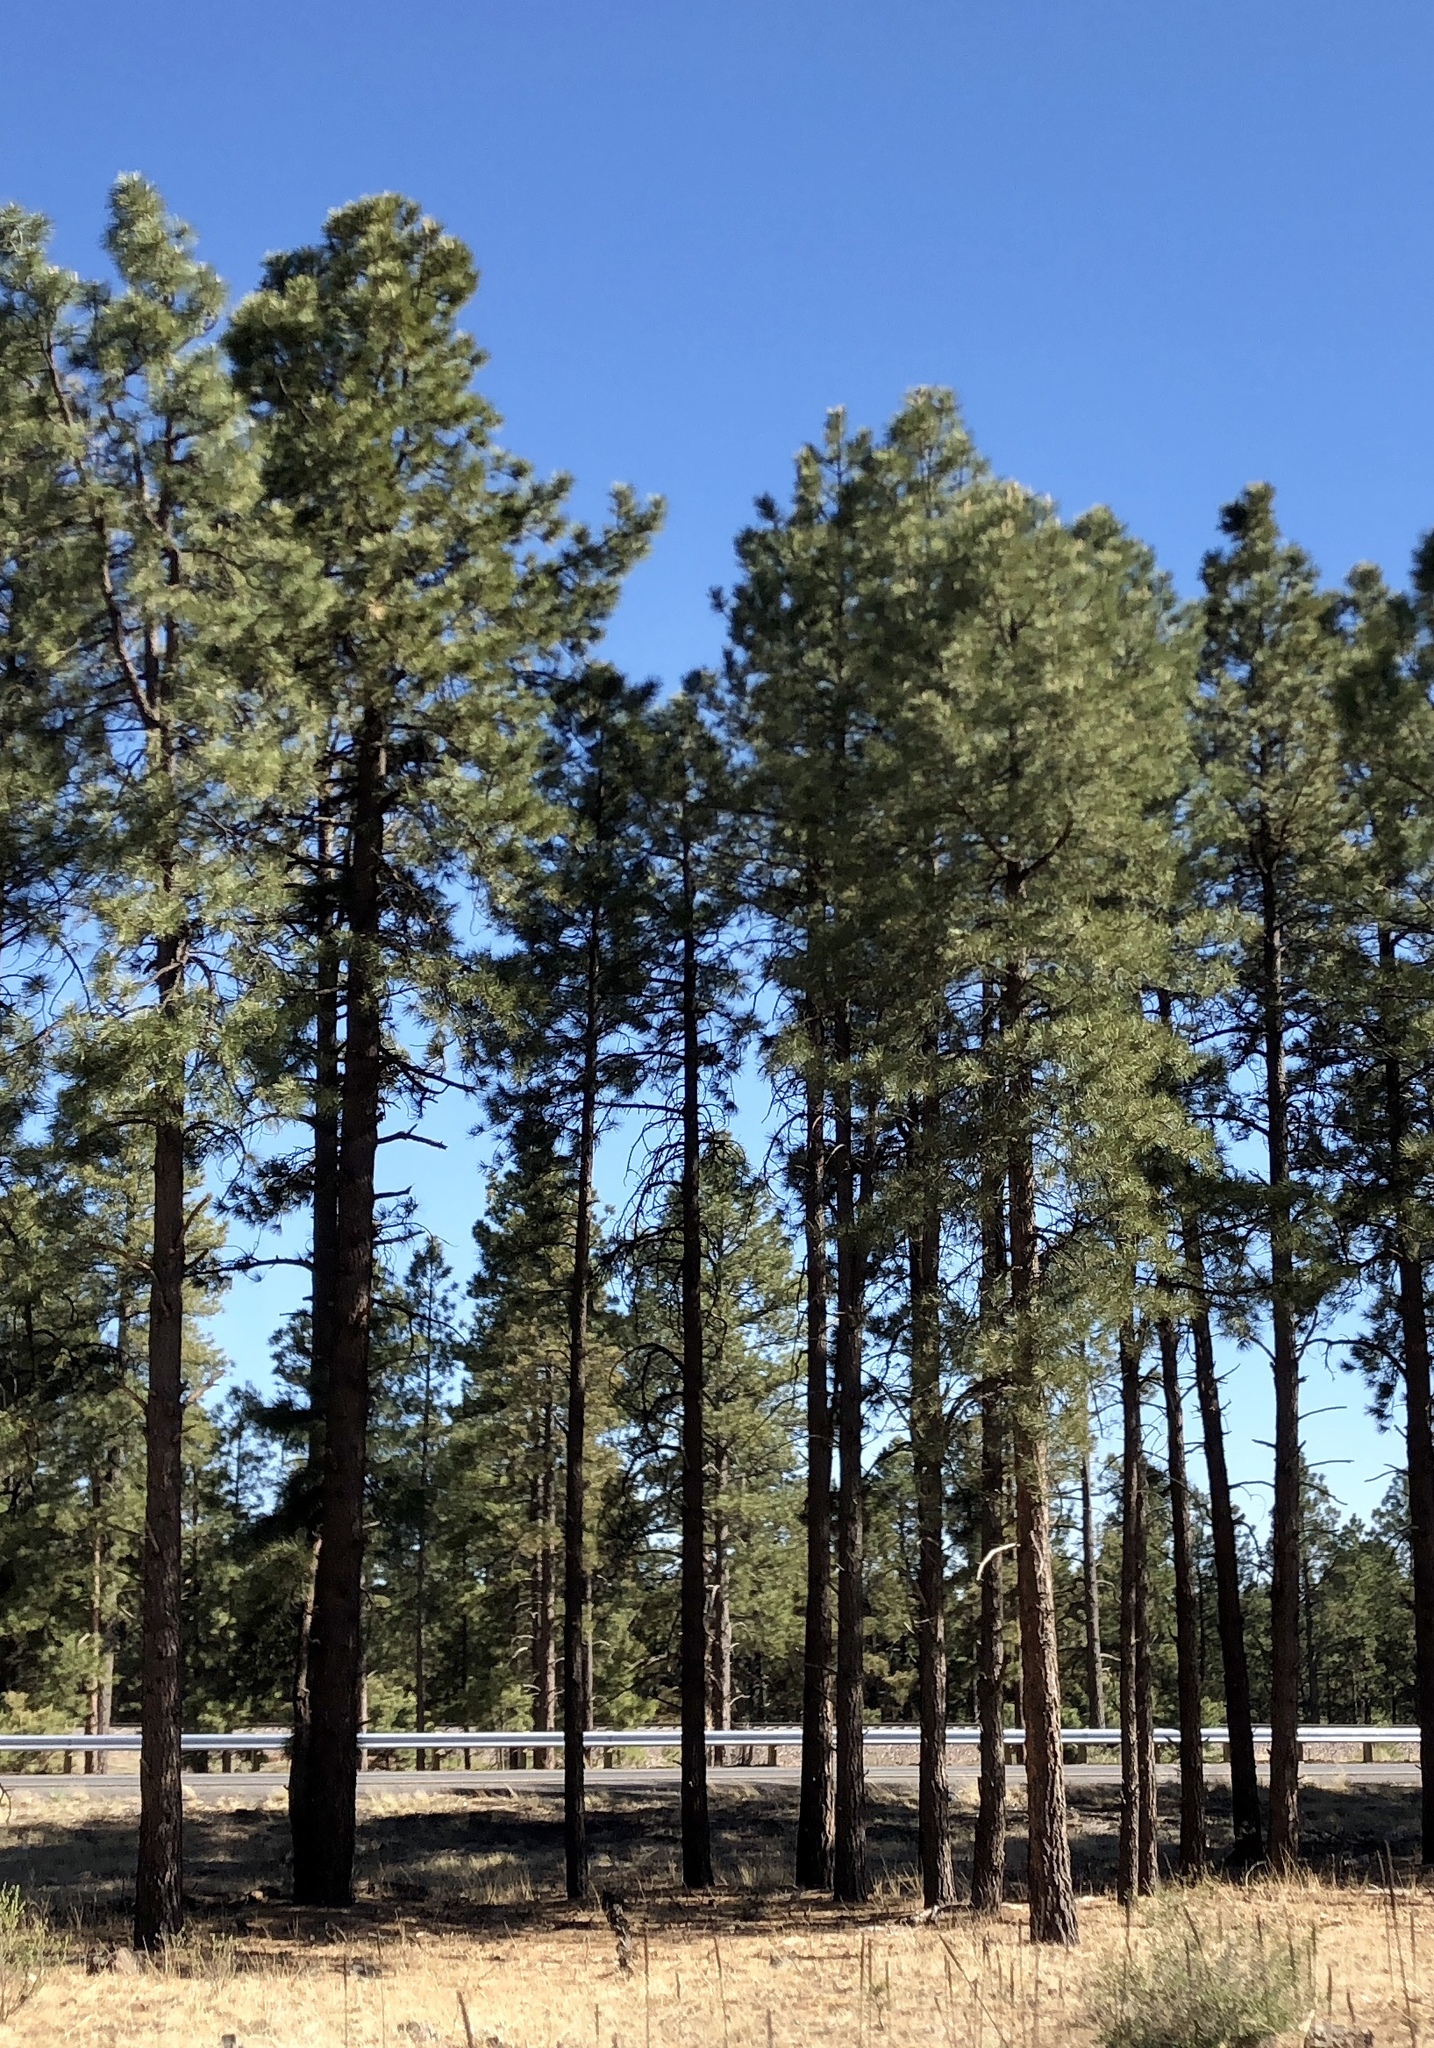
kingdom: Plantae
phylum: Tracheophyta
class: Pinopsida
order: Pinales
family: Pinaceae
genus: Pinus
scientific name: Pinus ponderosa
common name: Western yellow-pine
